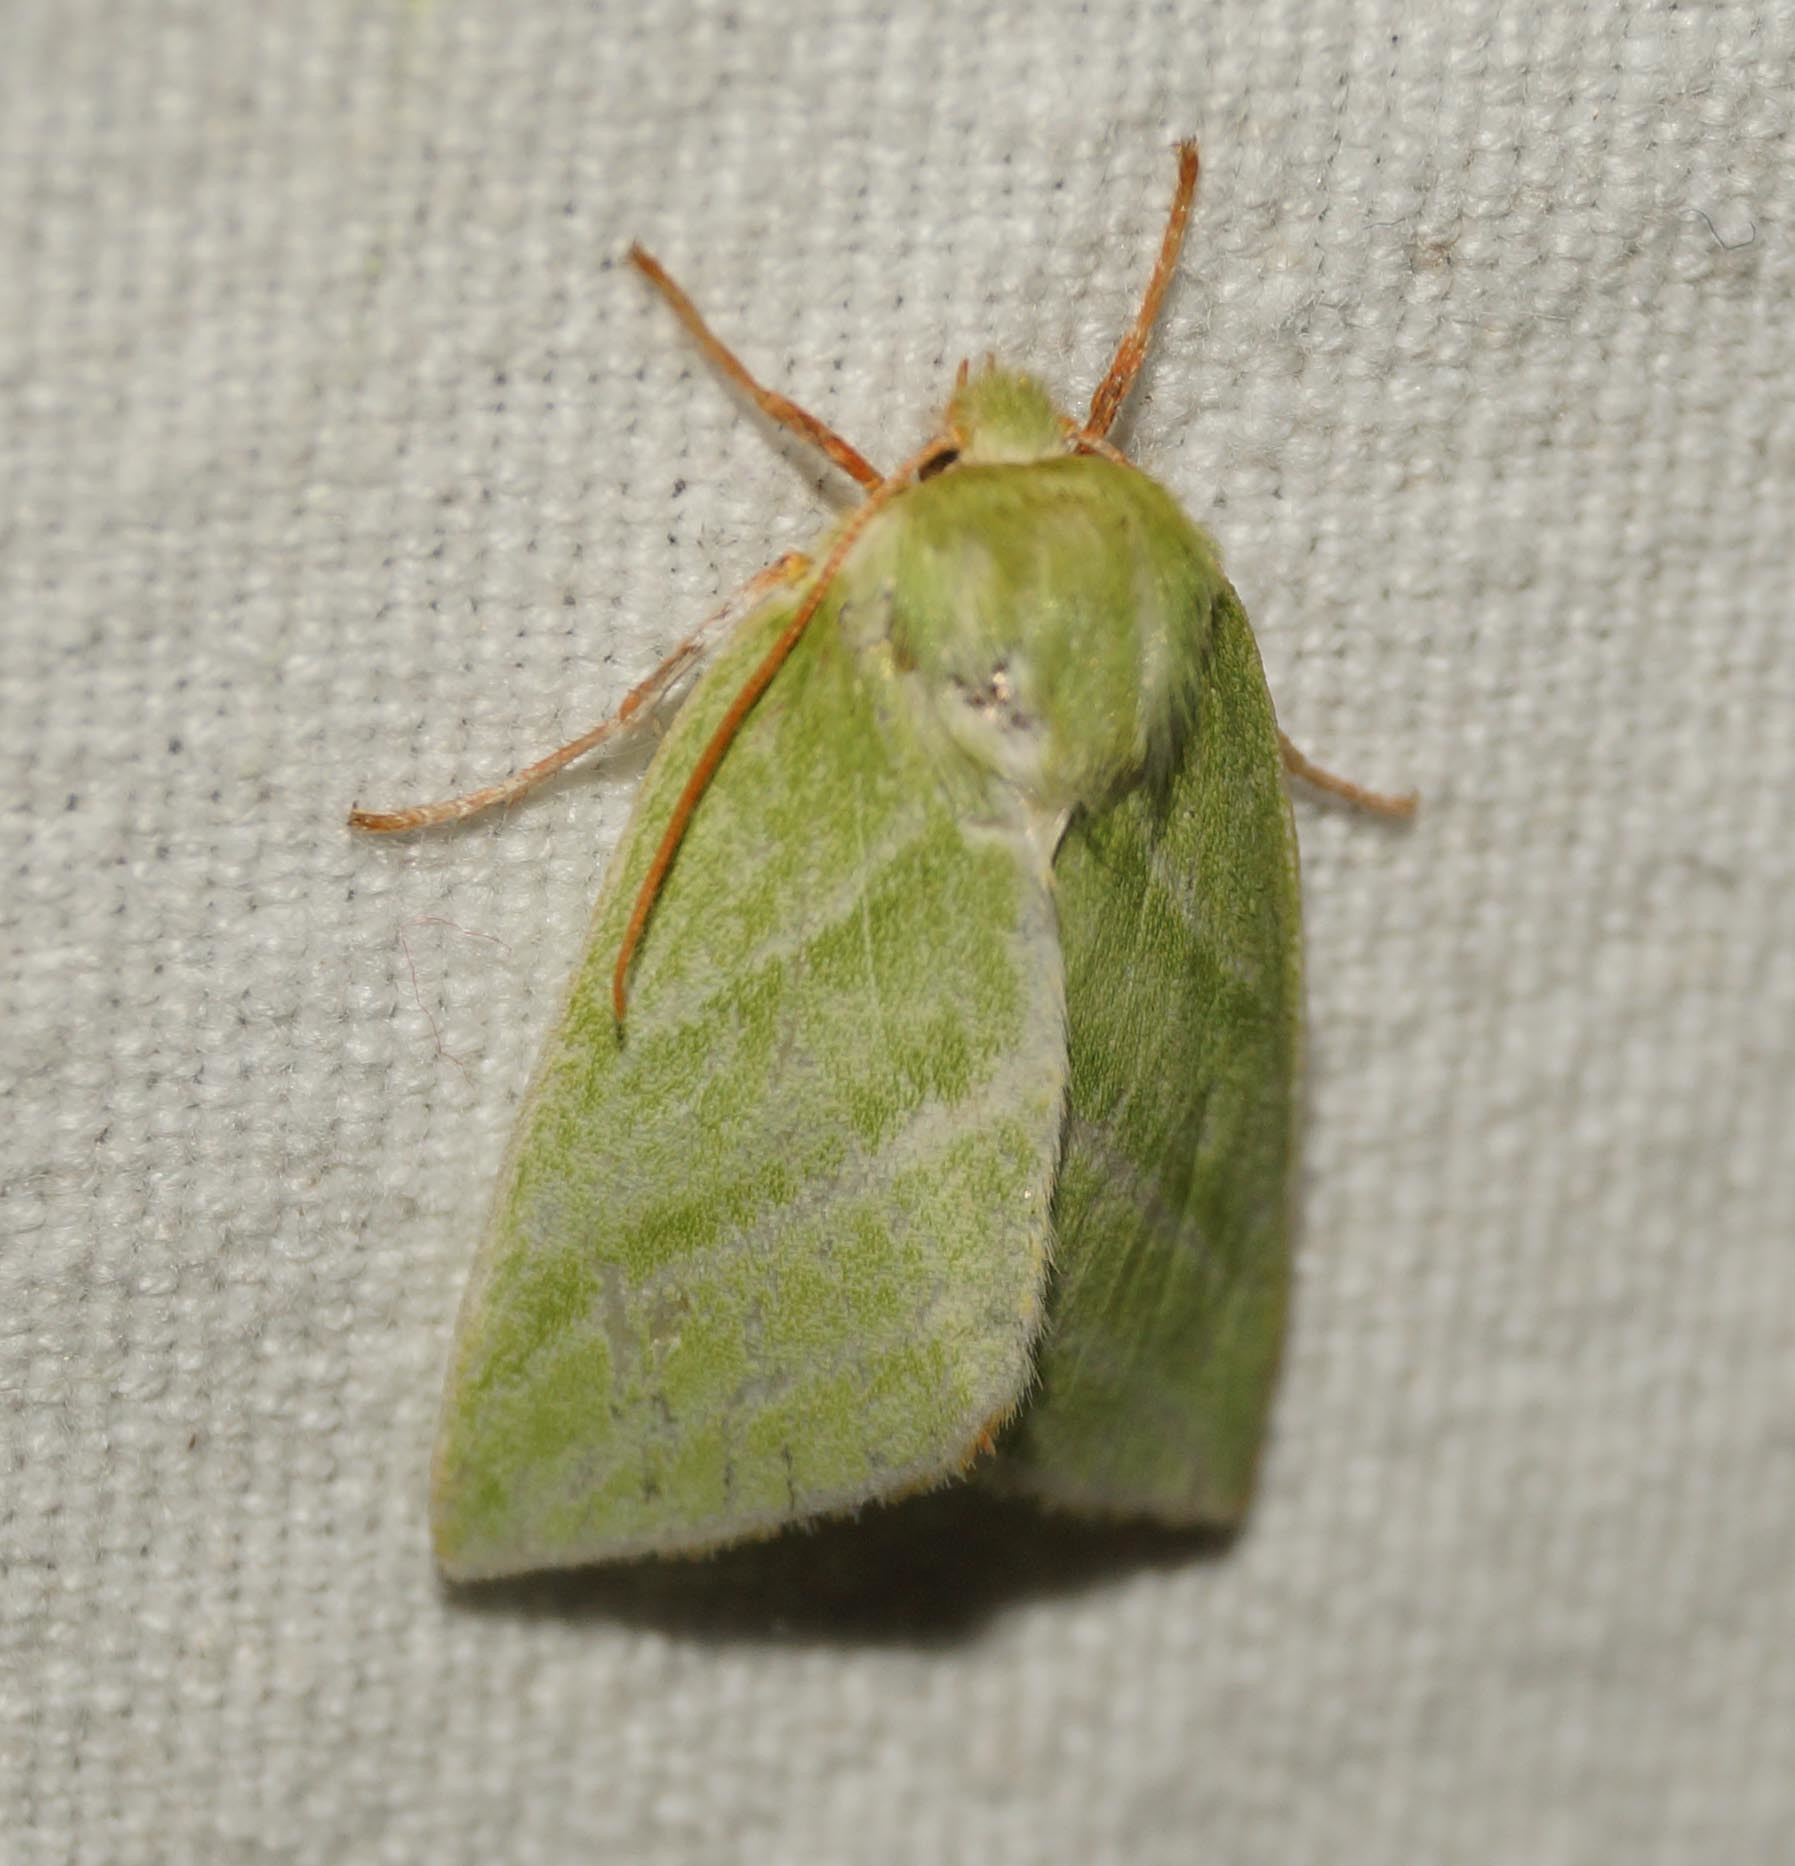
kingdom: Animalia
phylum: Arthropoda
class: Insecta
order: Lepidoptera
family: Nolidae
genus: Pseudoips
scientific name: Pseudoips prasinana
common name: Green silver-lines
